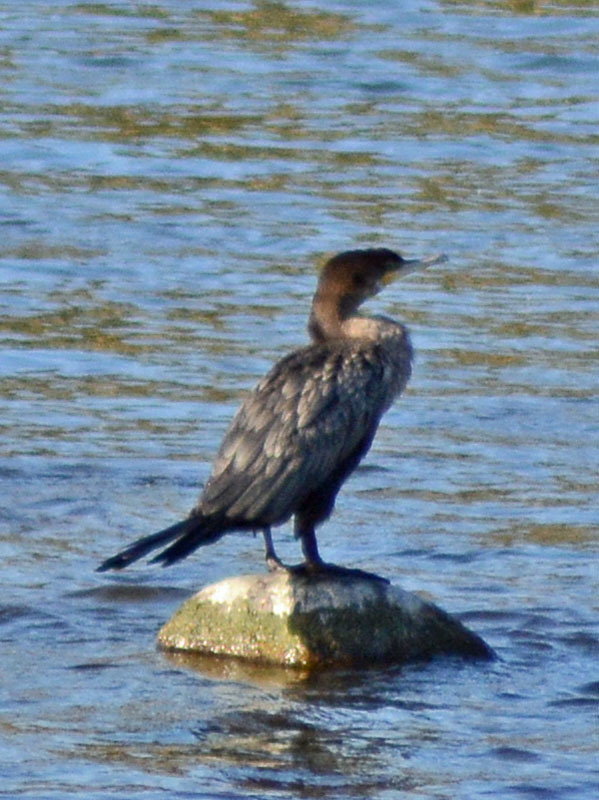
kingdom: Animalia
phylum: Chordata
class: Aves
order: Suliformes
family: Phalacrocoracidae
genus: Phalacrocorax
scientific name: Phalacrocorax brasilianus
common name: Neotropic cormorant
